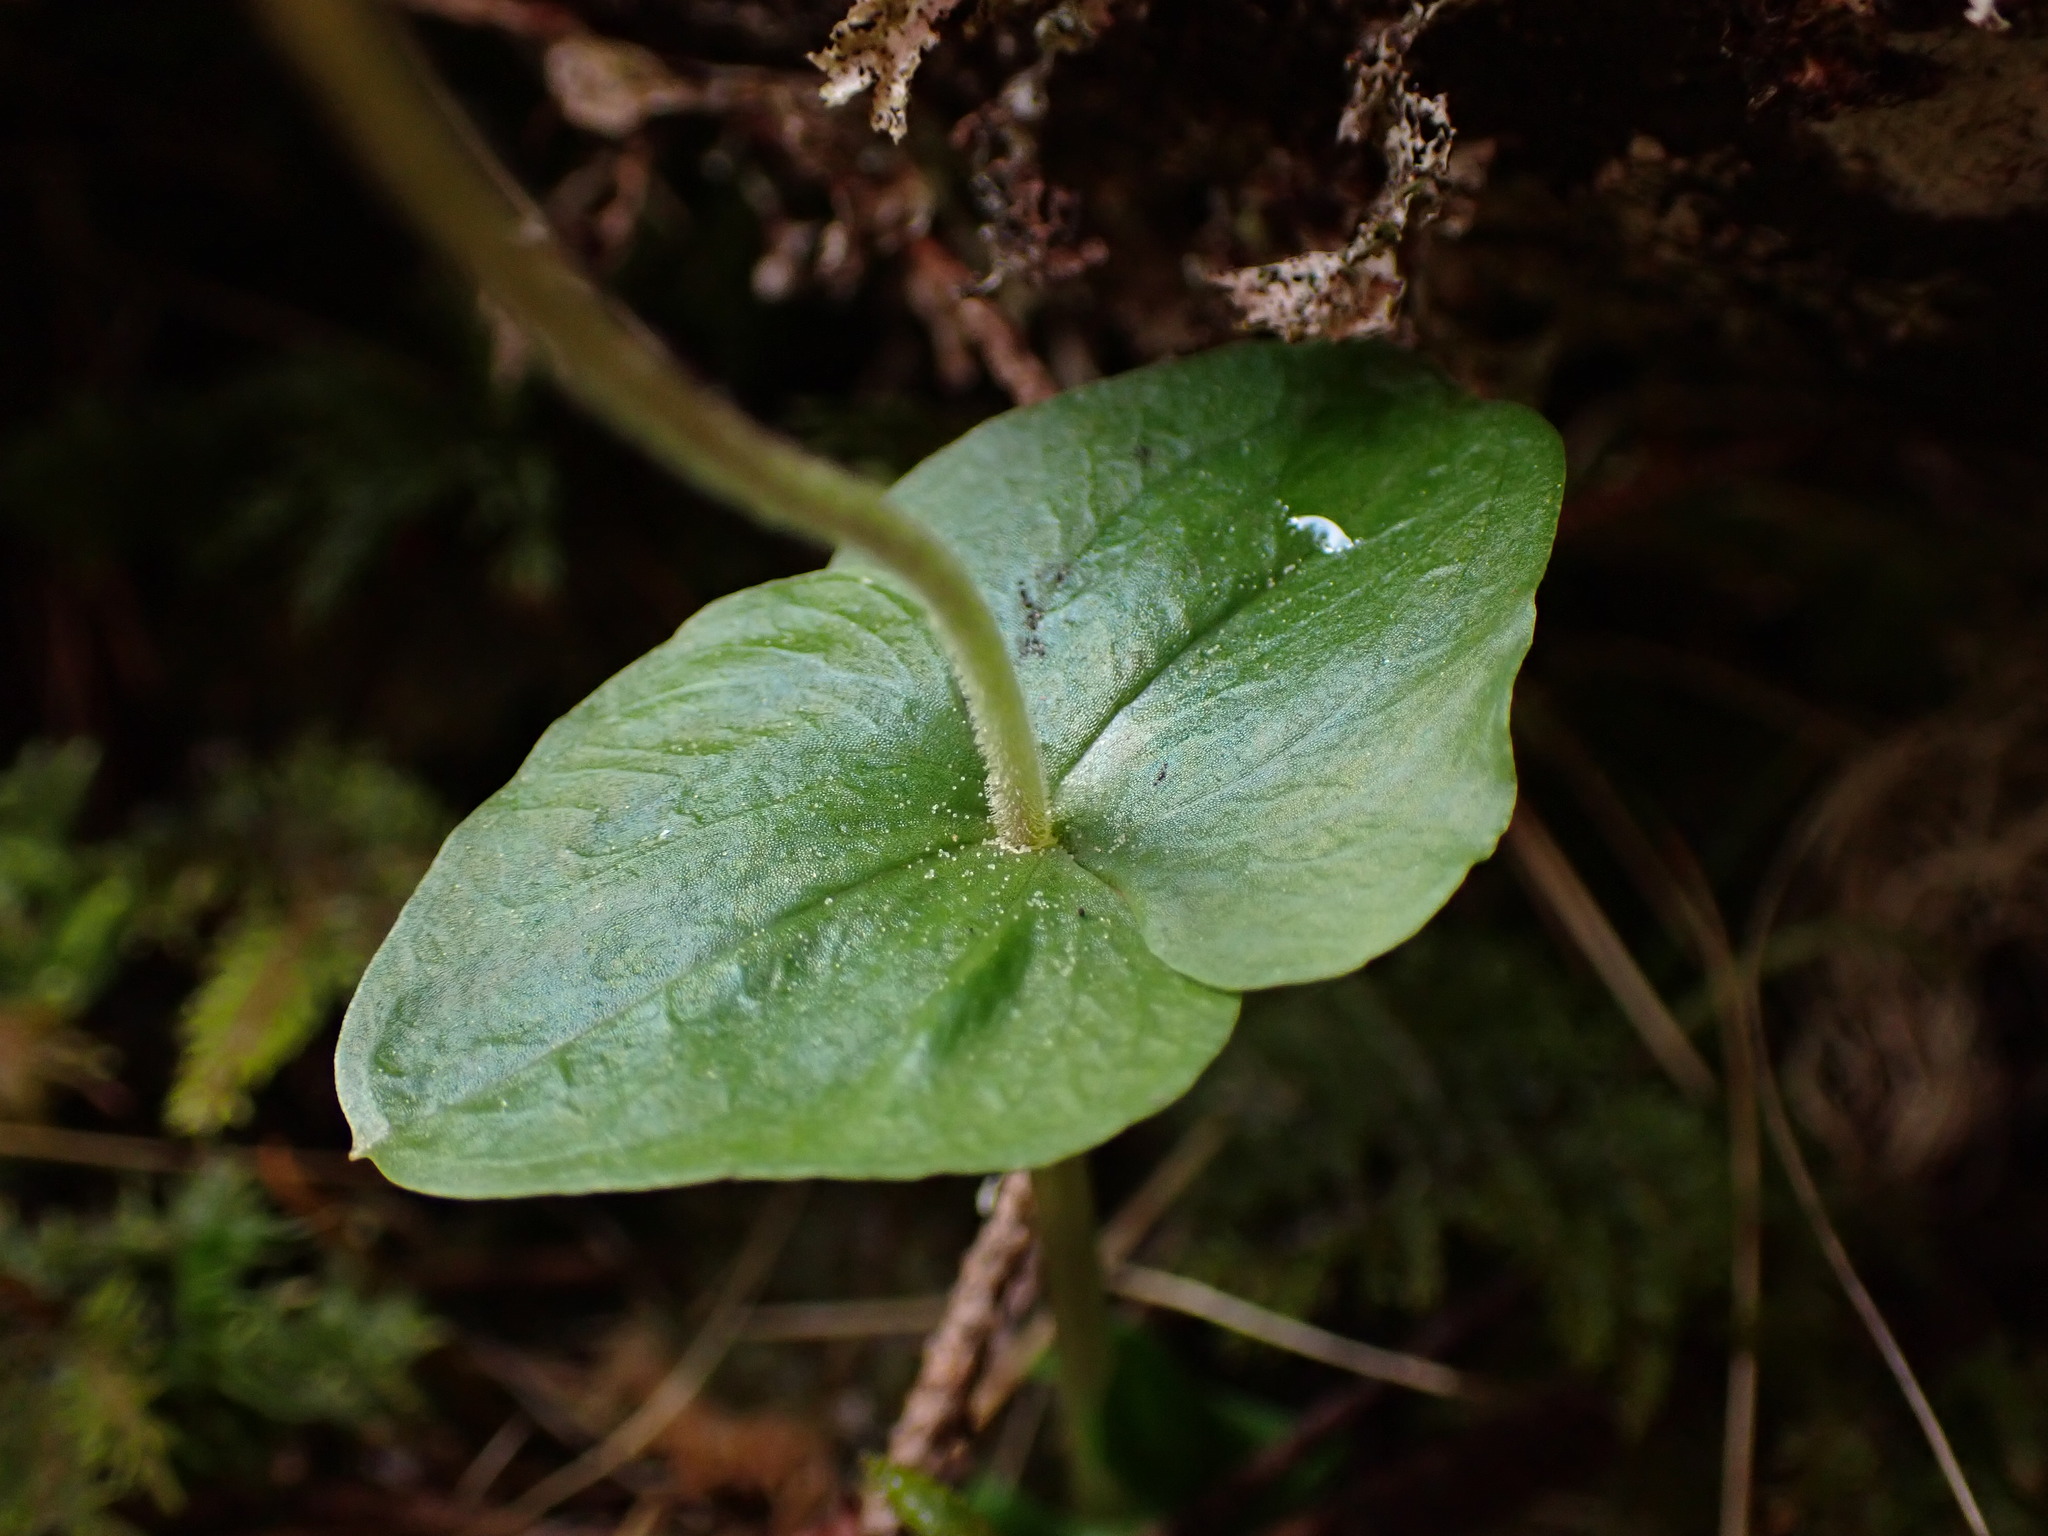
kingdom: Plantae
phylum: Tracheophyta
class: Liliopsida
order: Asparagales
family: Orchidaceae
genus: Neottia
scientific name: Neottia cordata
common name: Lesser twayblade
